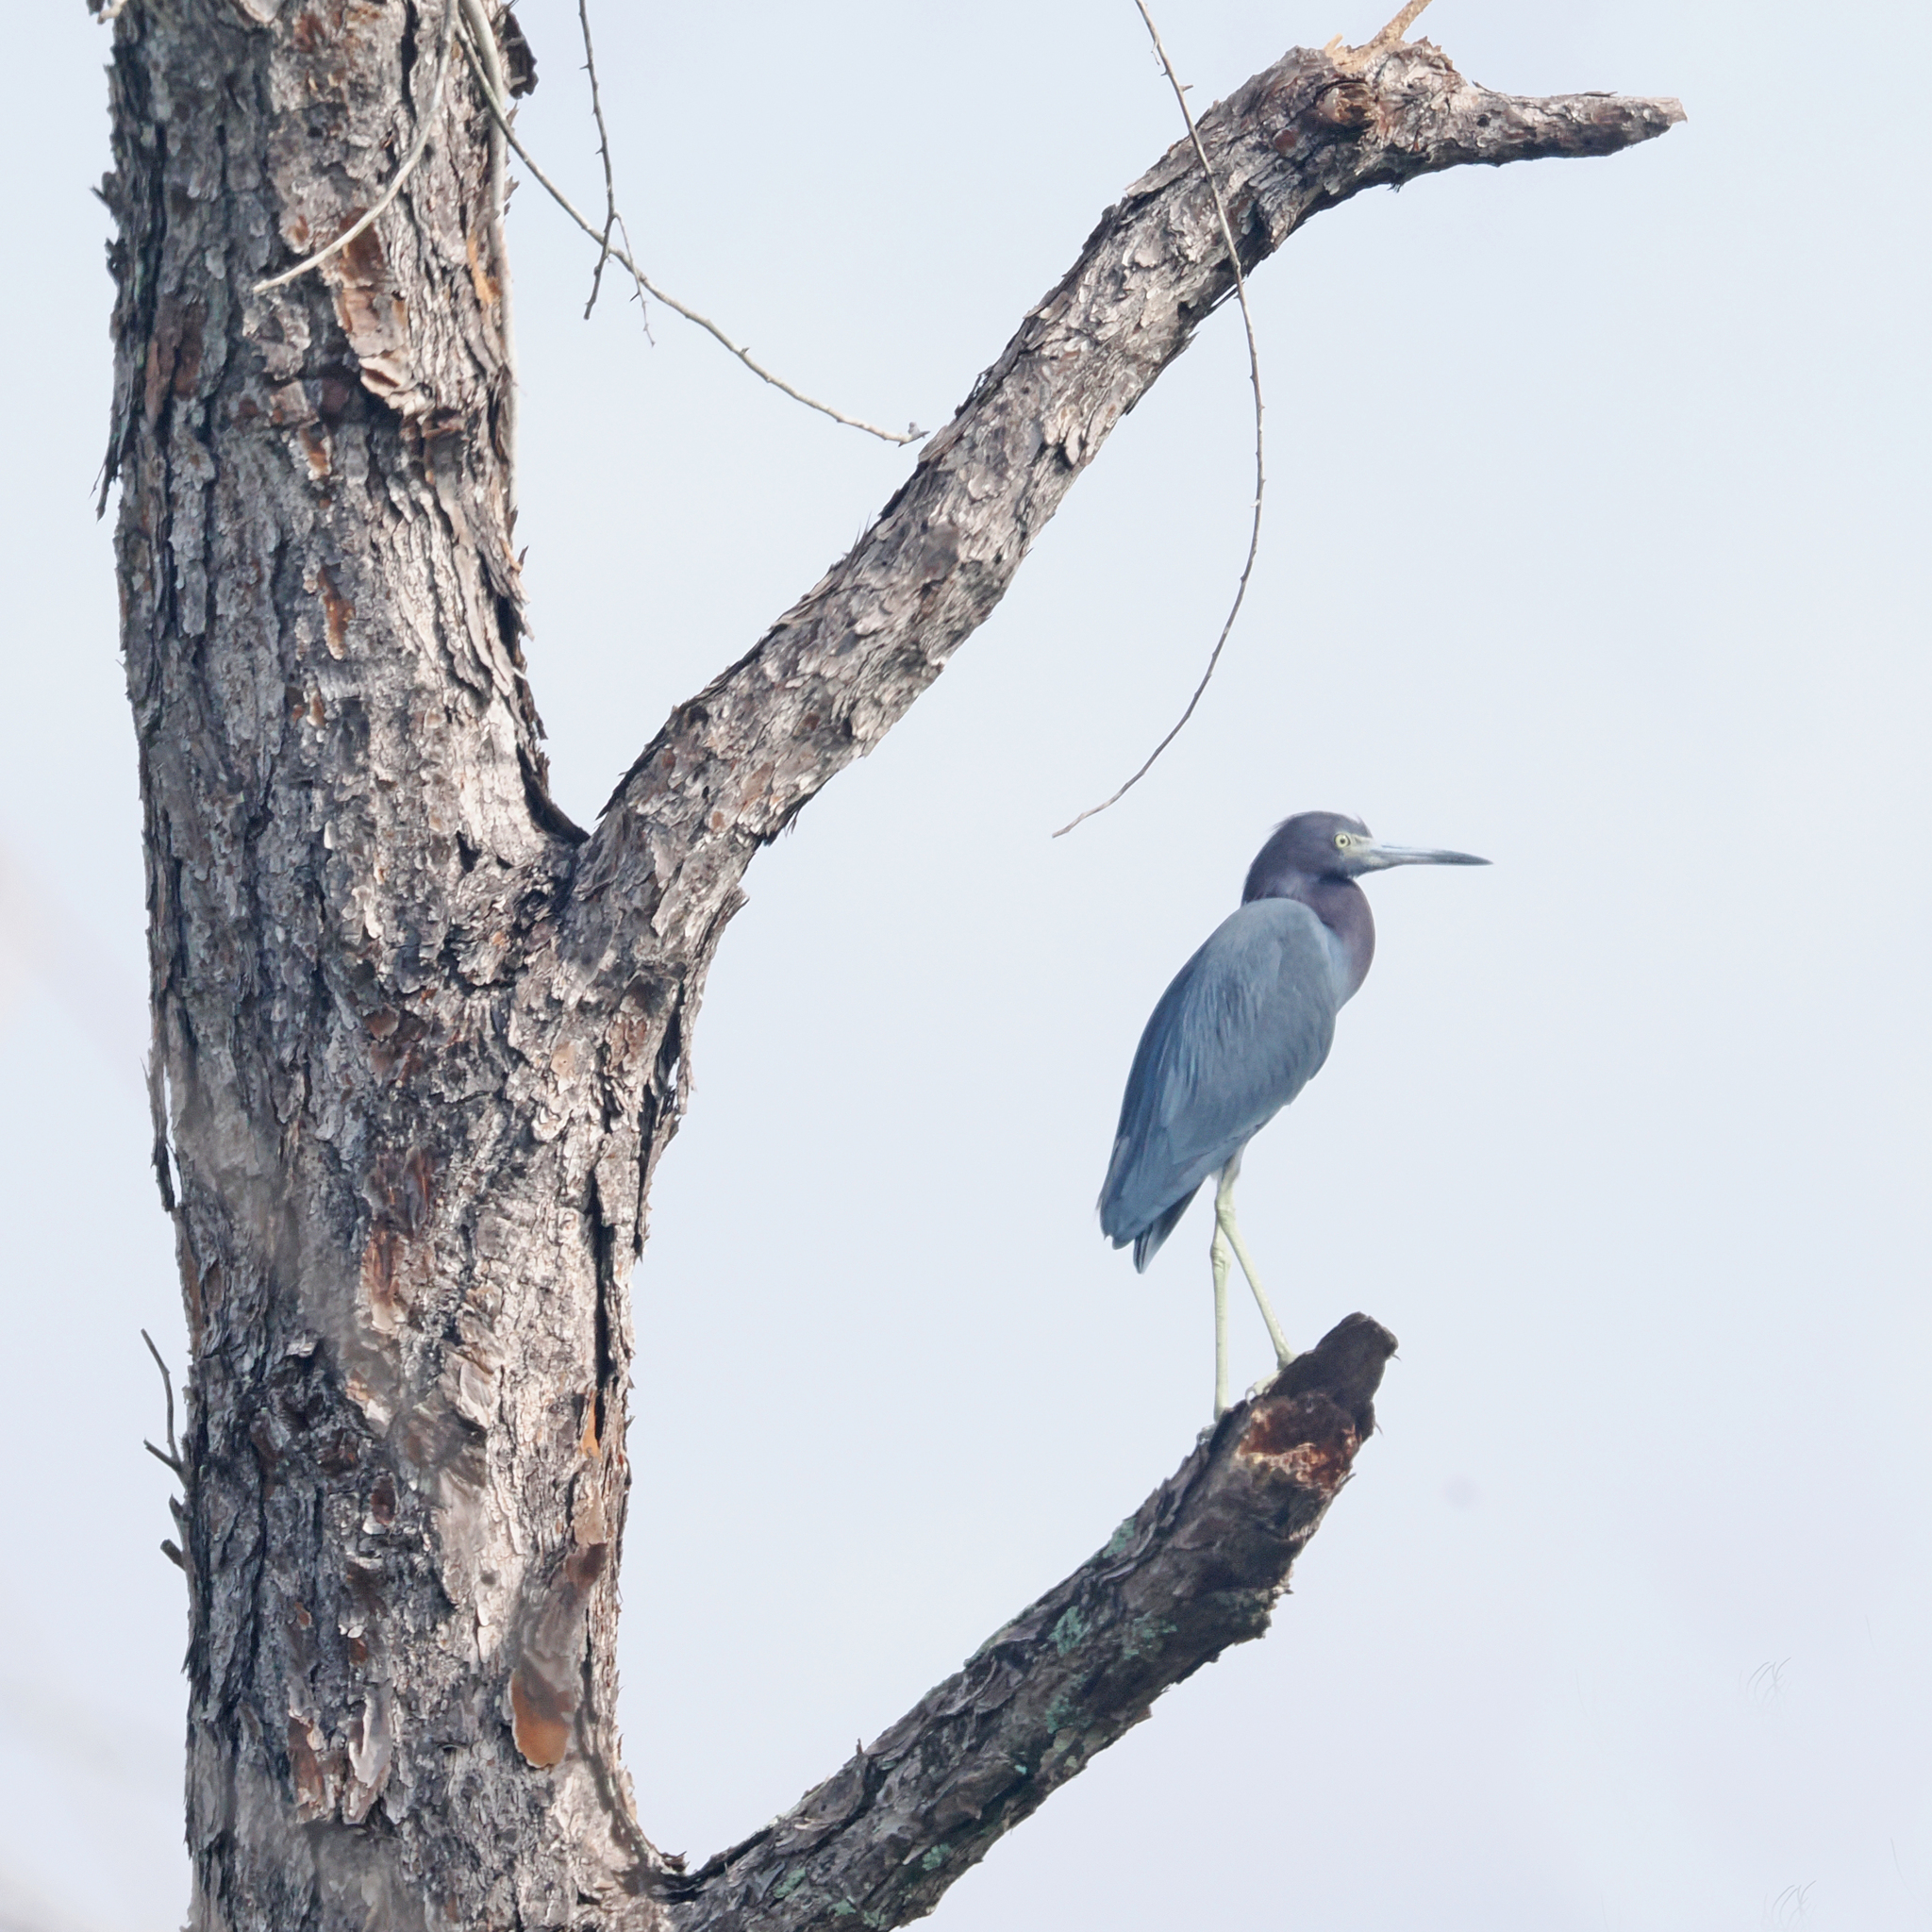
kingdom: Animalia
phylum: Chordata
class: Aves
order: Pelecaniformes
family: Ardeidae
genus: Egretta
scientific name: Egretta caerulea
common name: Little blue heron
